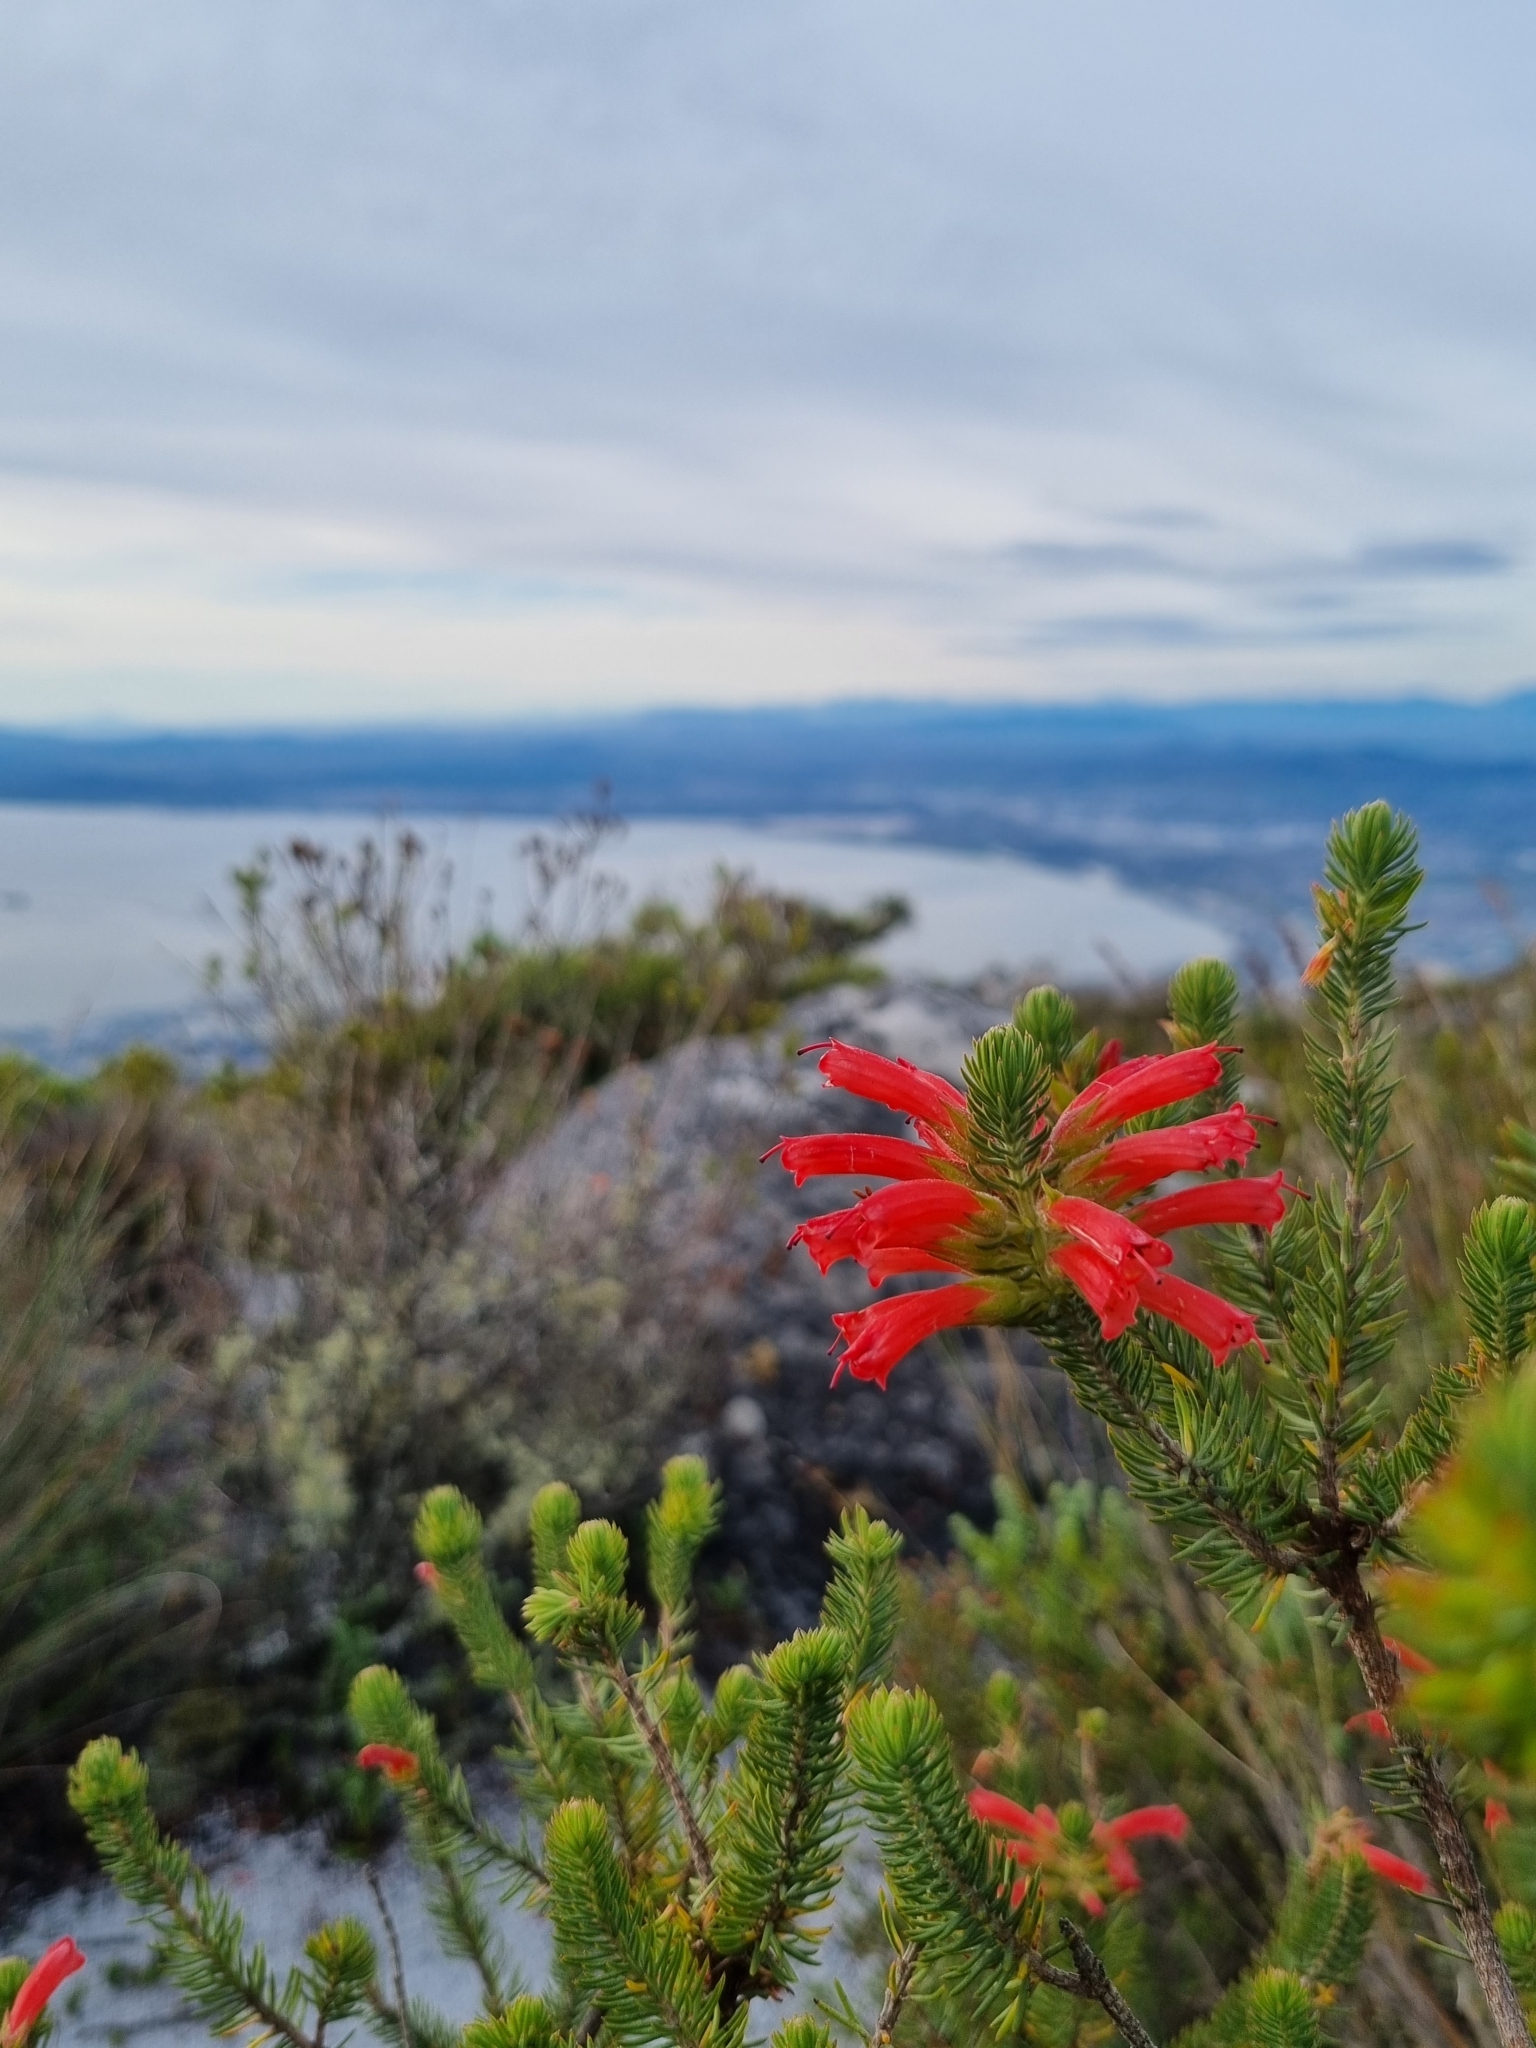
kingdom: Plantae
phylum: Tracheophyta
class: Magnoliopsida
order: Ericales
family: Ericaceae
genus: Erica
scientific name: Erica abietina
